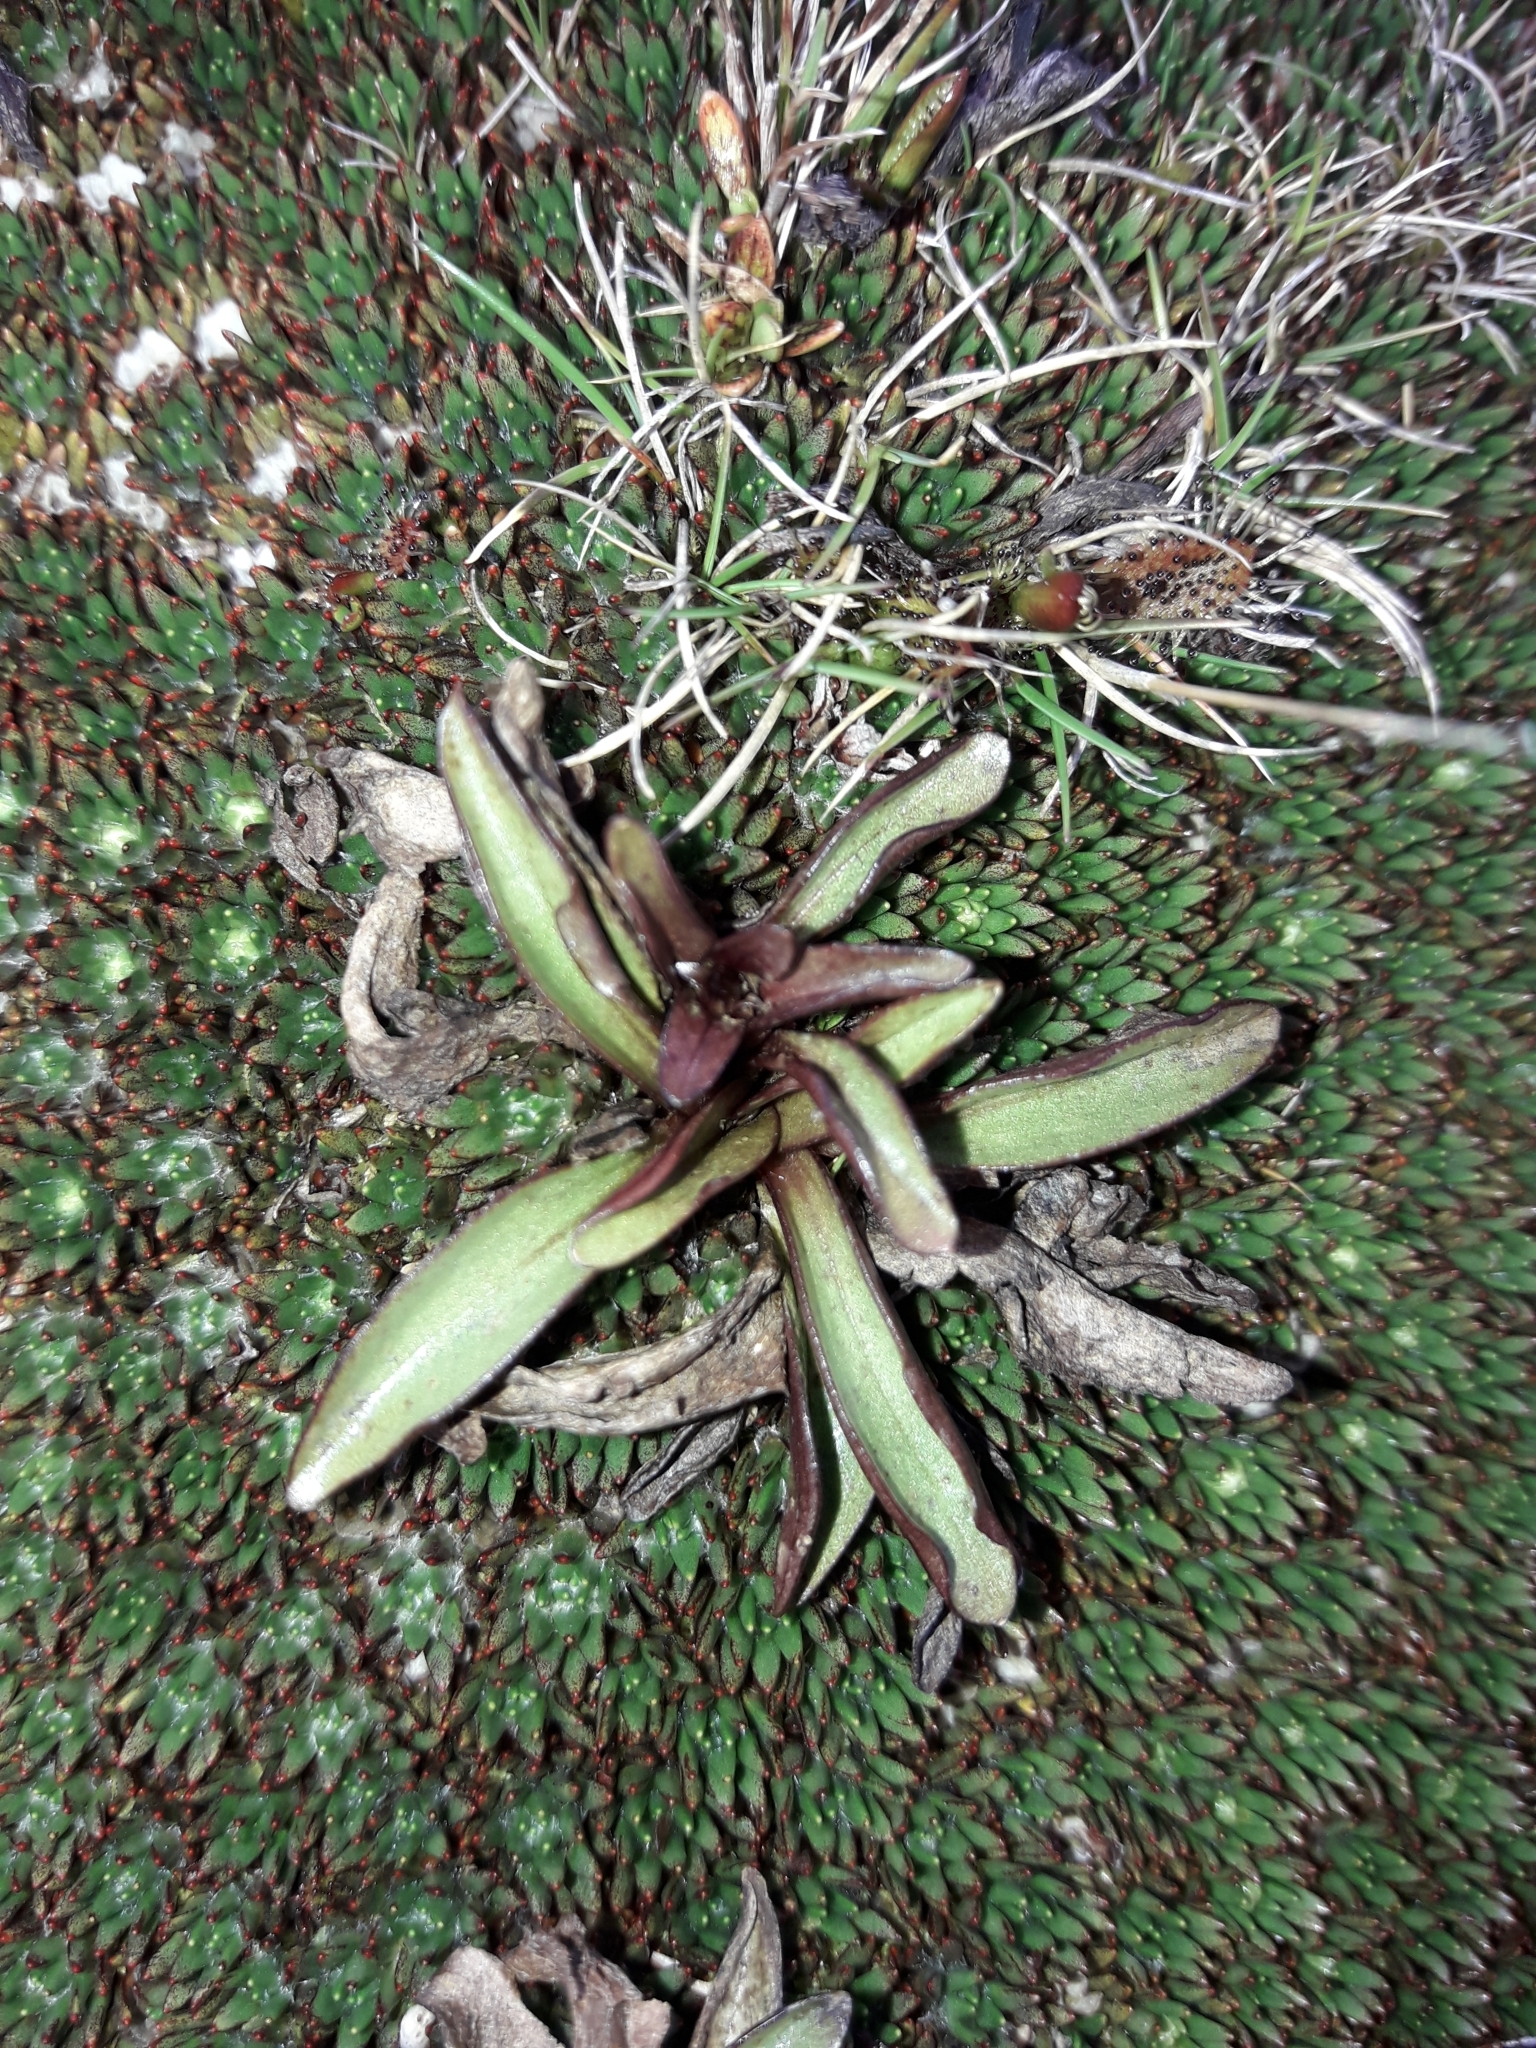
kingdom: Plantae
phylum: Tracheophyta
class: Magnoliopsida
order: Gentianales
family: Gentianaceae
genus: Gentianella
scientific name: Gentianella bellidifolia
